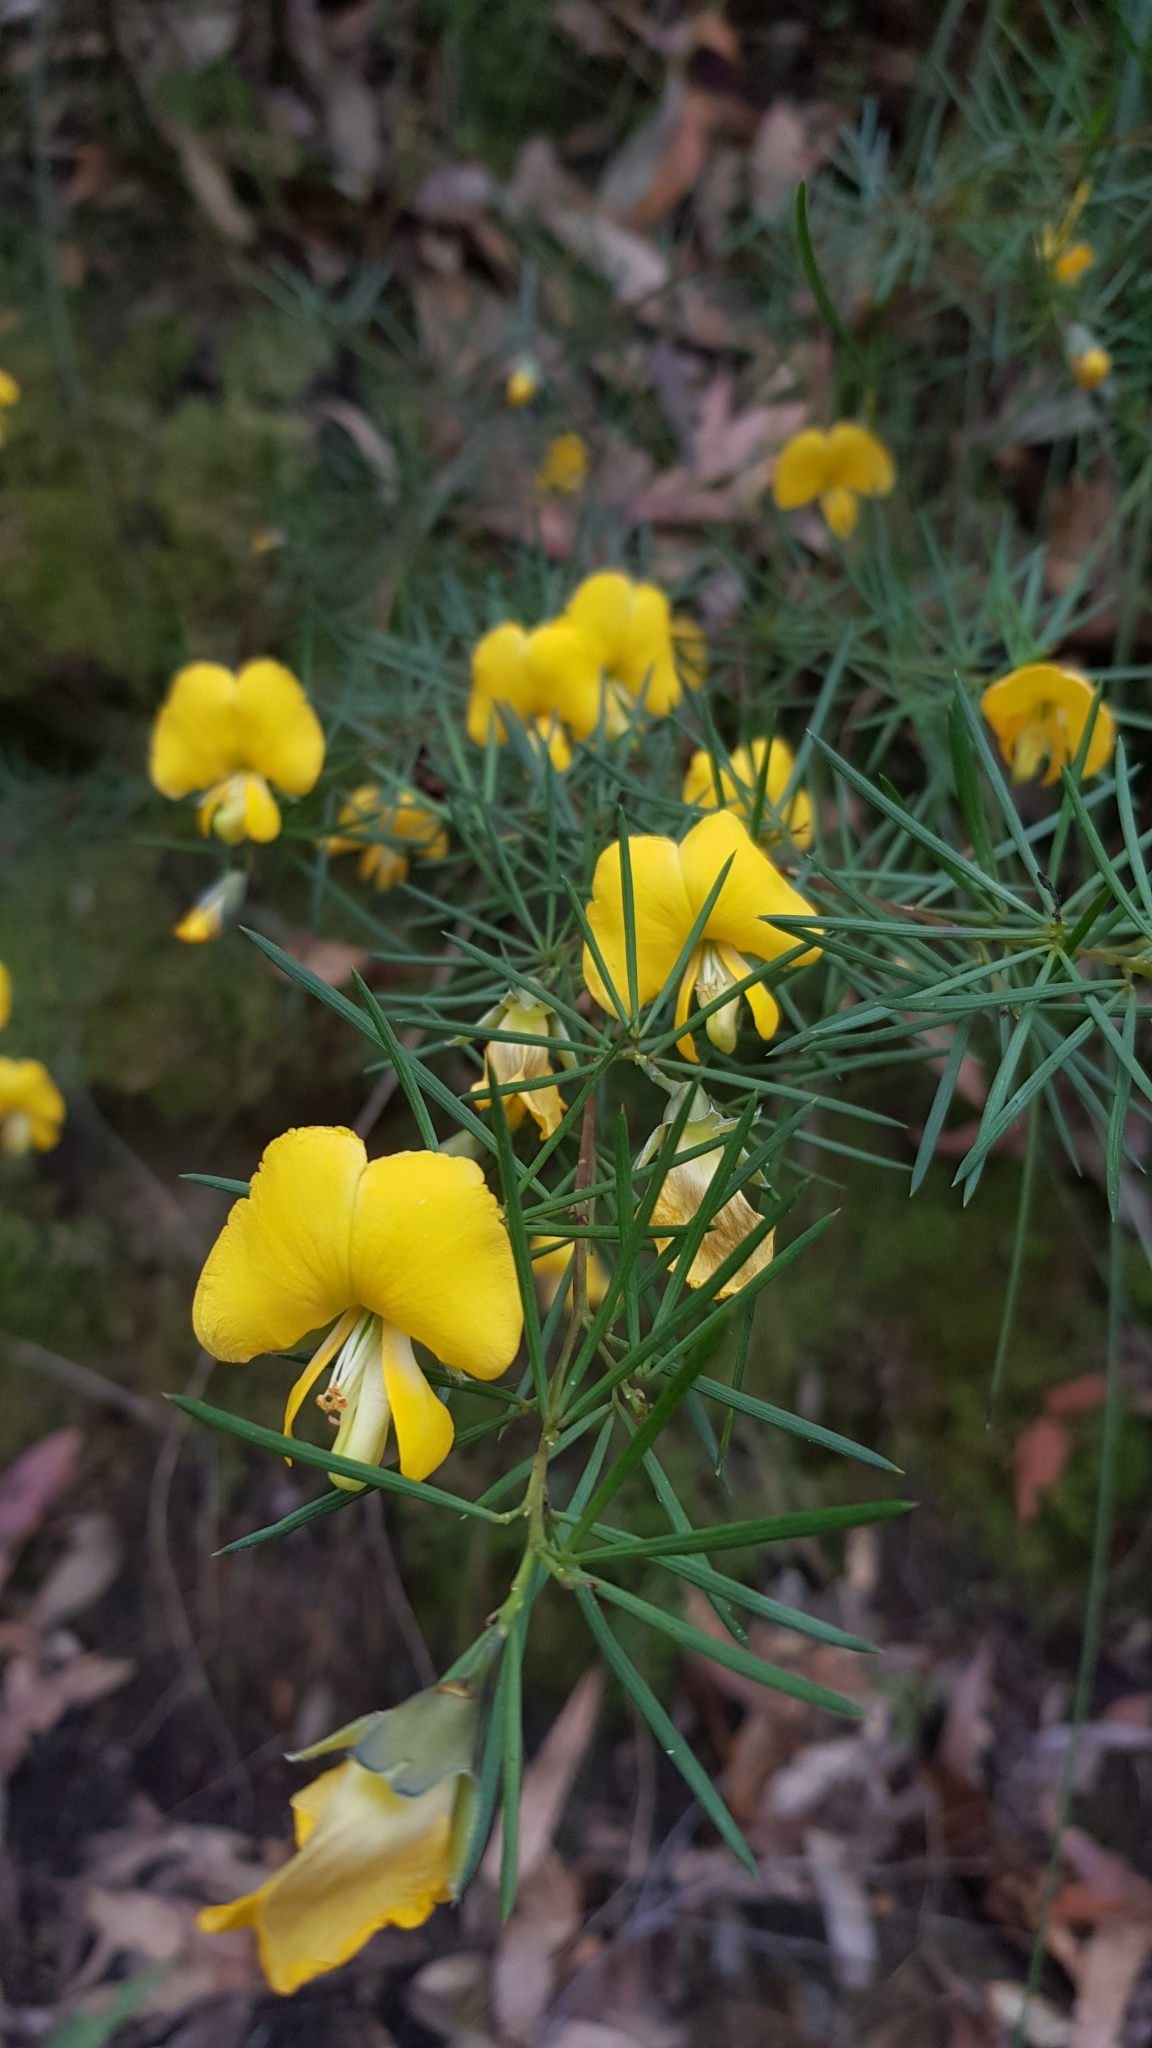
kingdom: Plantae
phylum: Tracheophyta
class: Magnoliopsida
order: Fabales
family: Fabaceae
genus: Gompholobium
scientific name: Gompholobium grandiflorum
